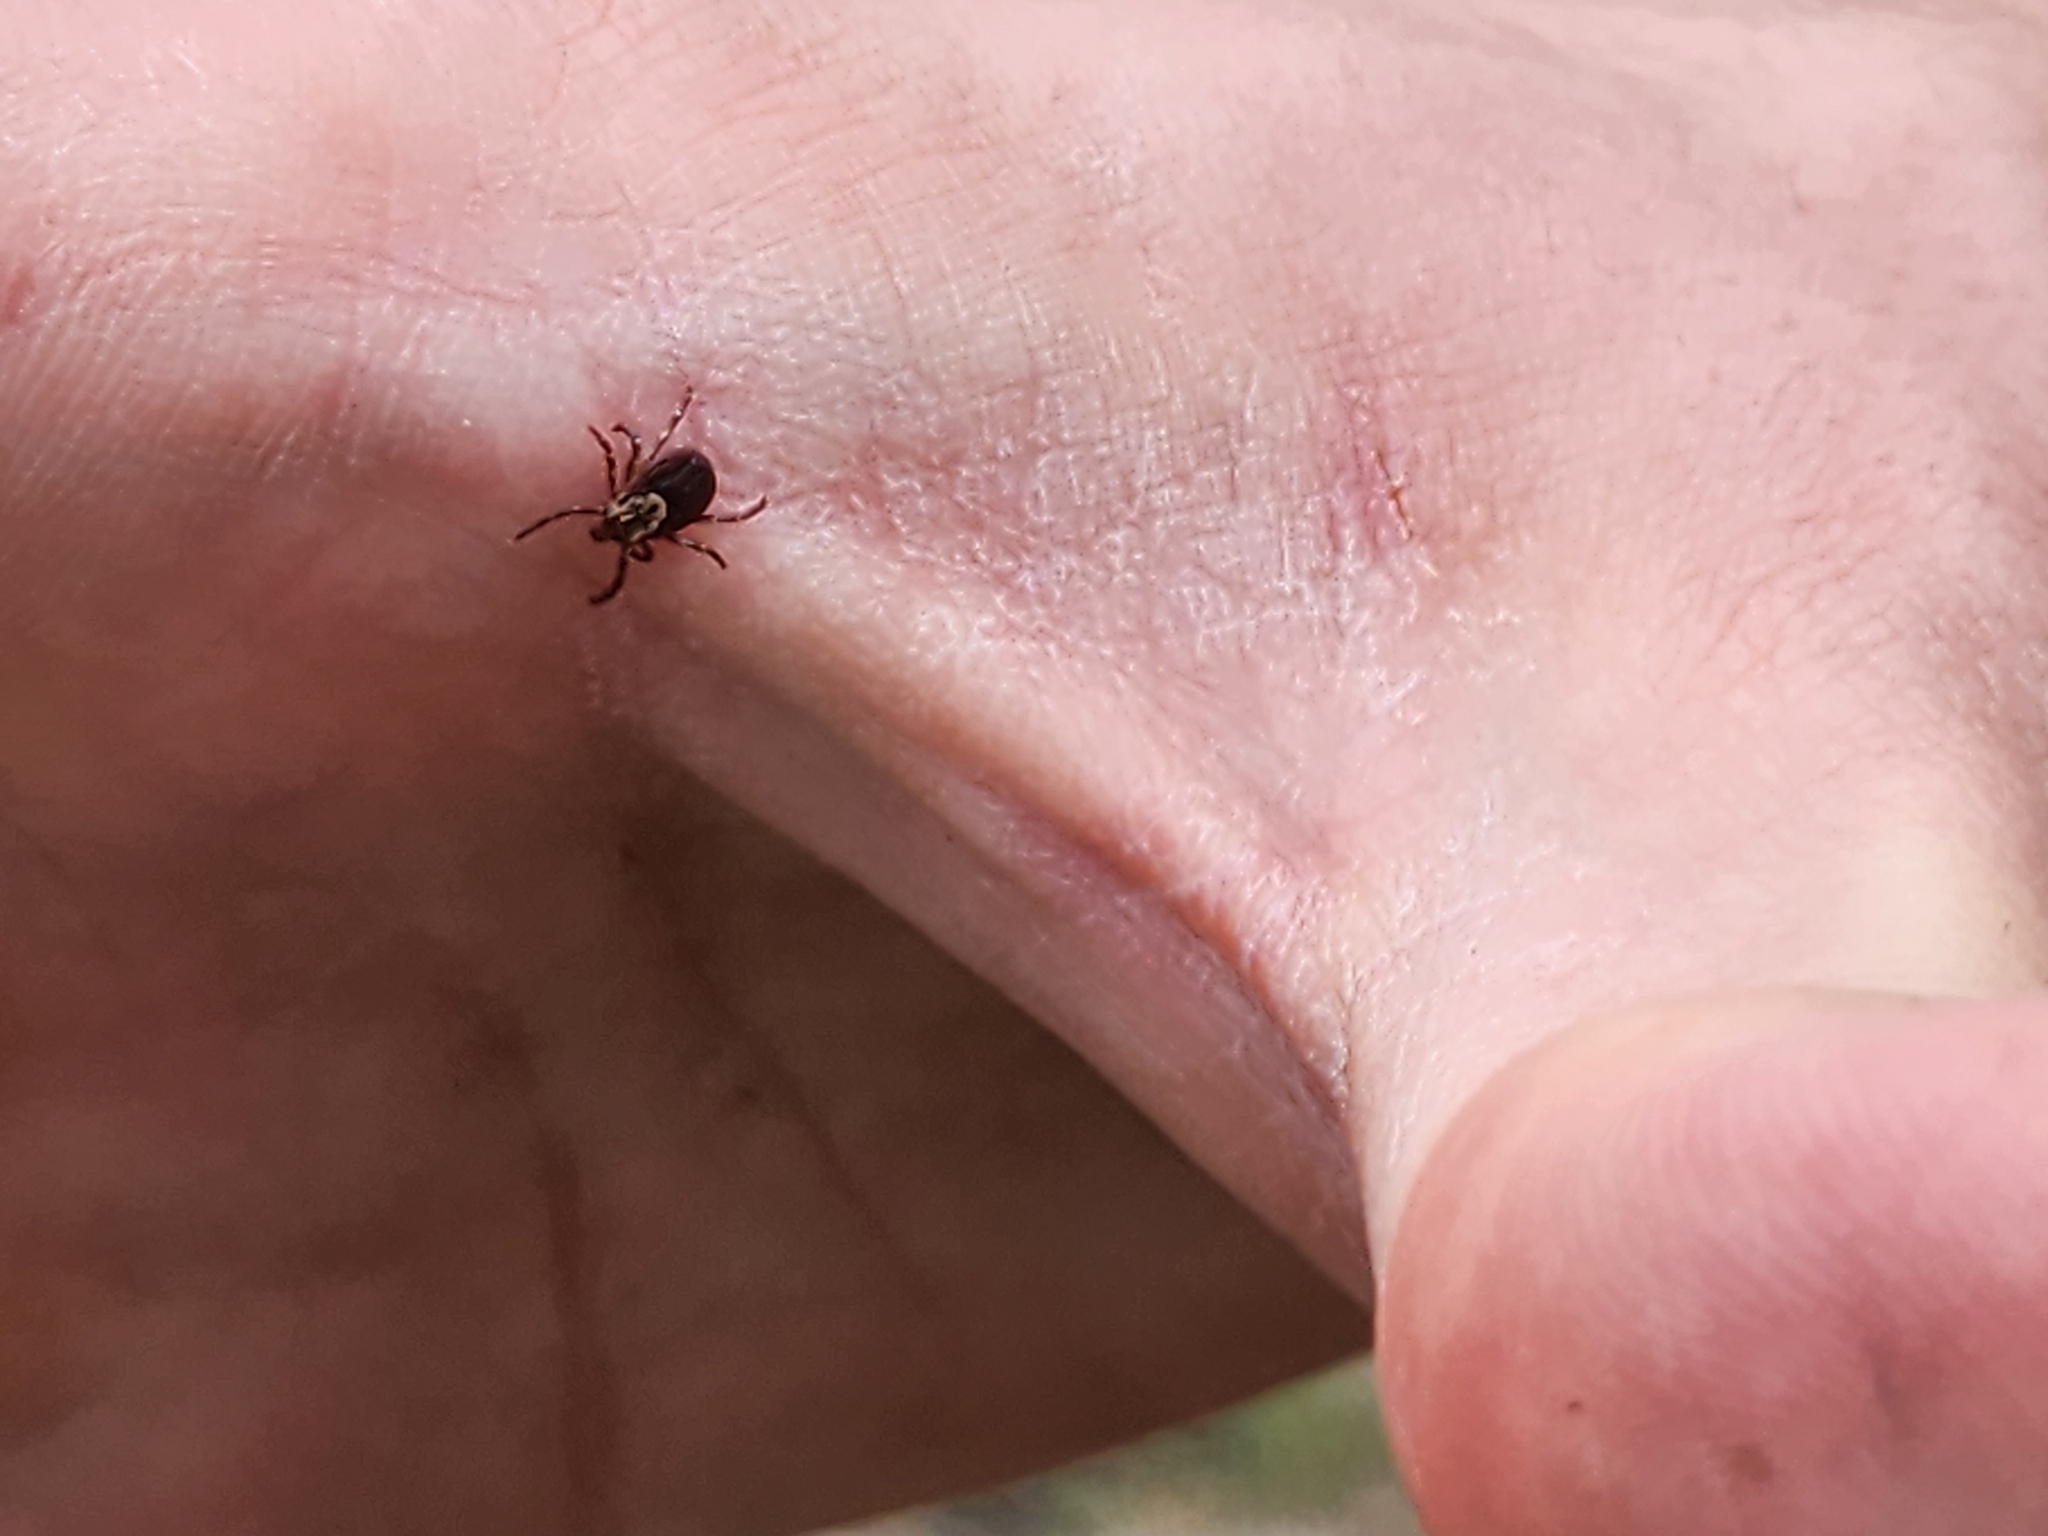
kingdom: Animalia
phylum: Arthropoda
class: Arachnida
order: Ixodida
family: Ixodidae
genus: Dermacentor
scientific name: Dermacentor variabilis
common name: American dog tick
